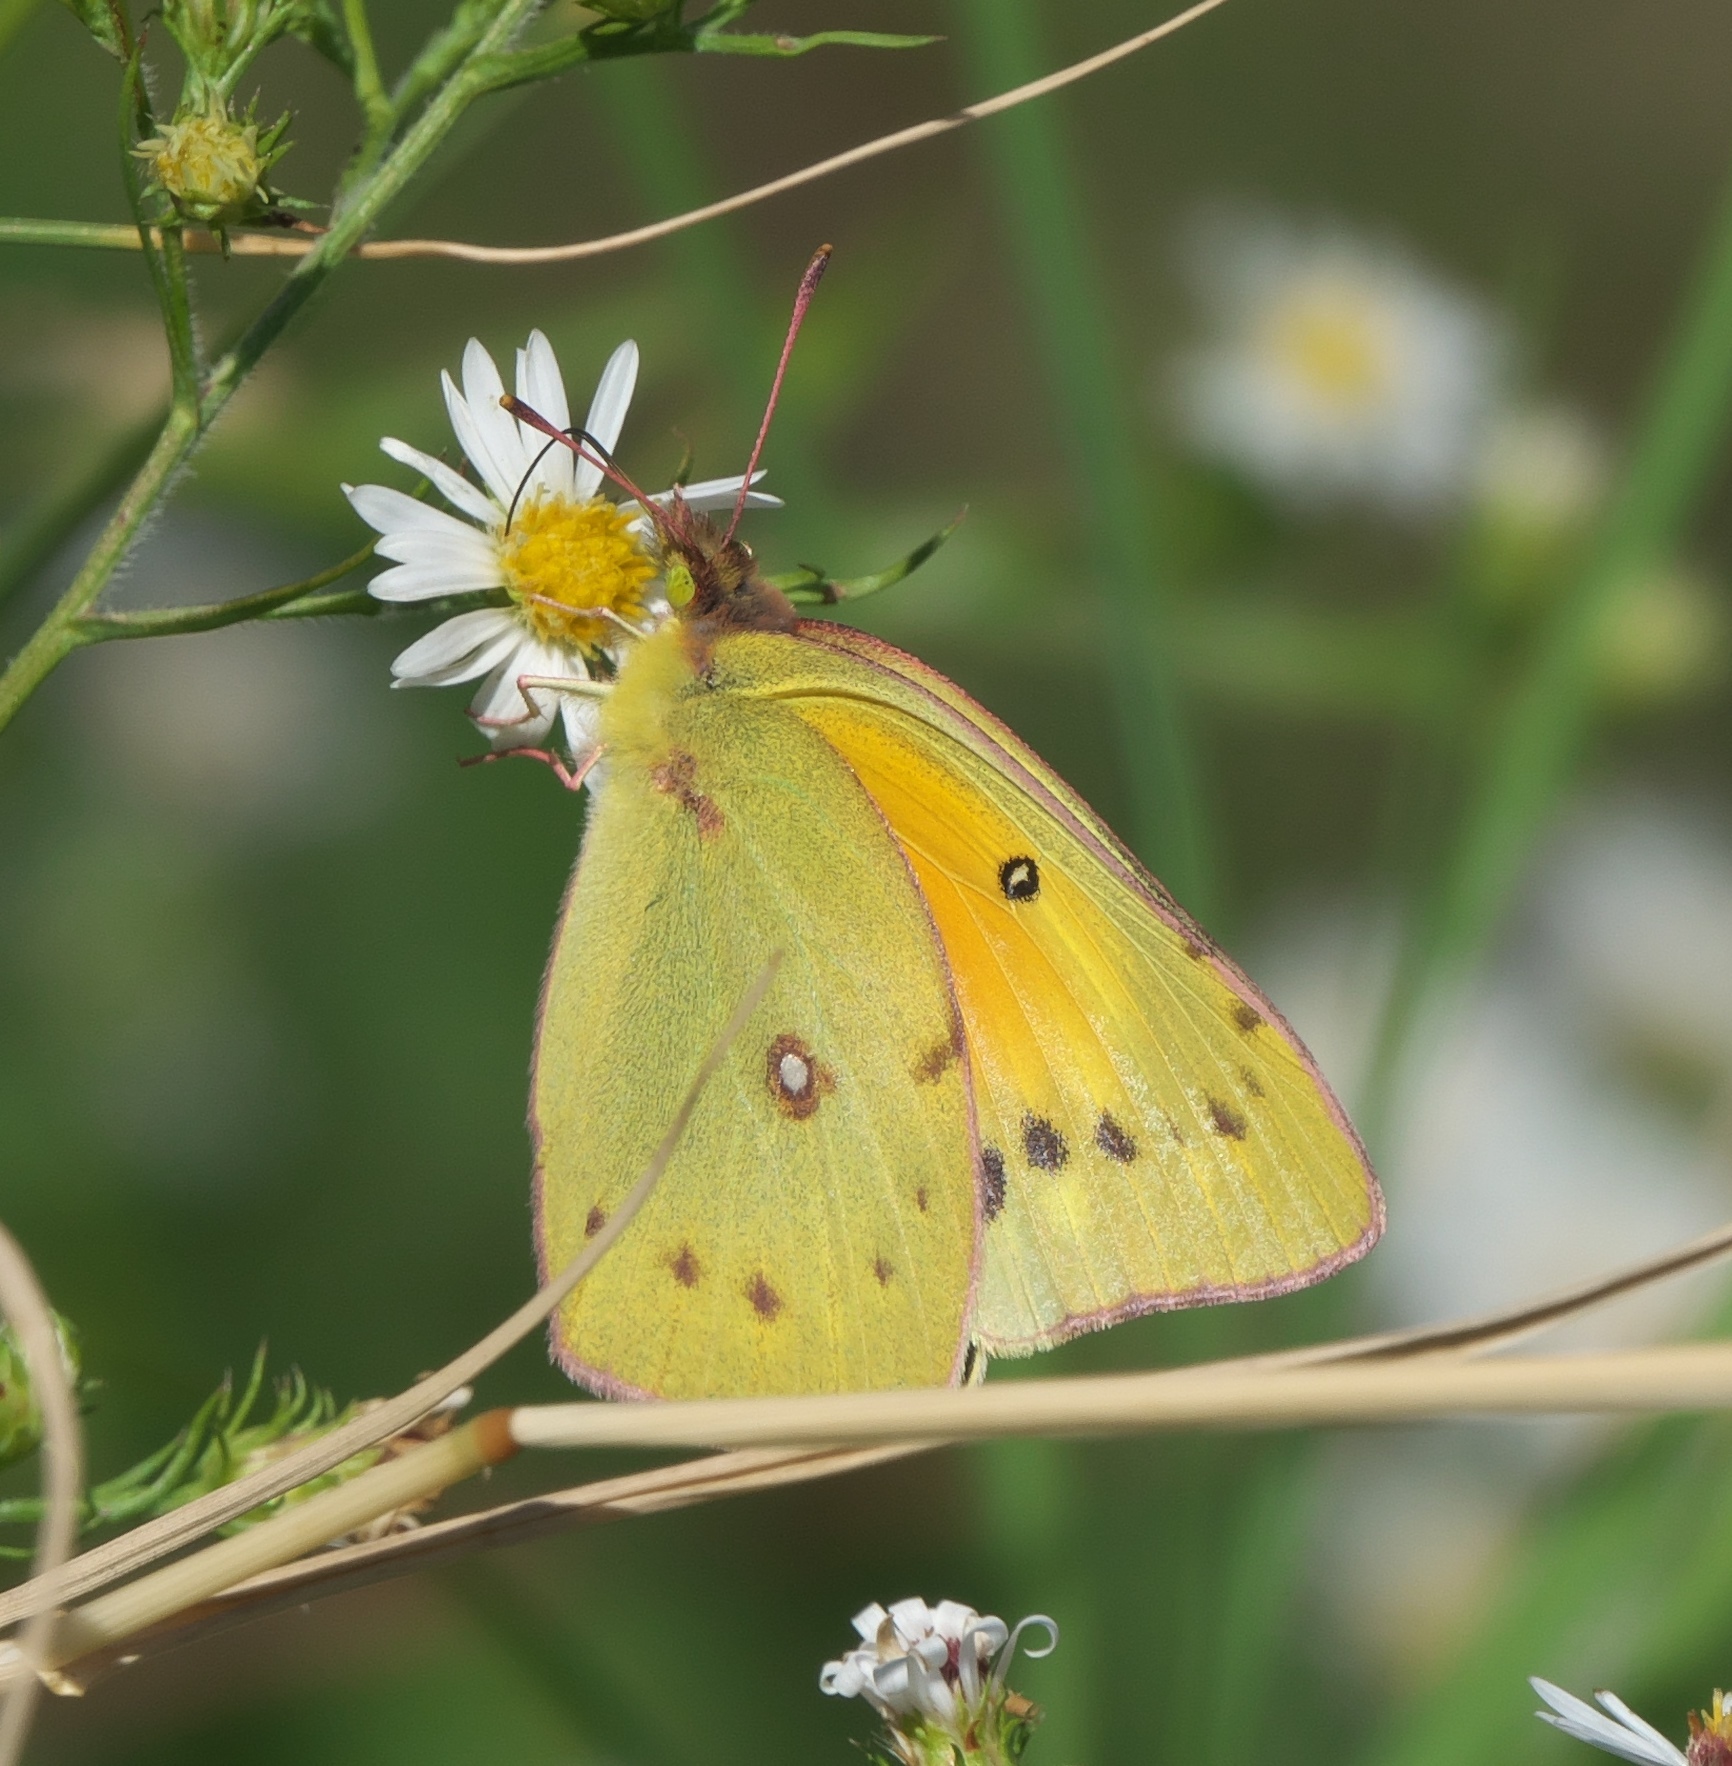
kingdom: Animalia
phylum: Arthropoda
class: Insecta
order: Lepidoptera
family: Pieridae
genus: Colias
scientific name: Colias eurytheme
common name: Alfalfa butterfly
